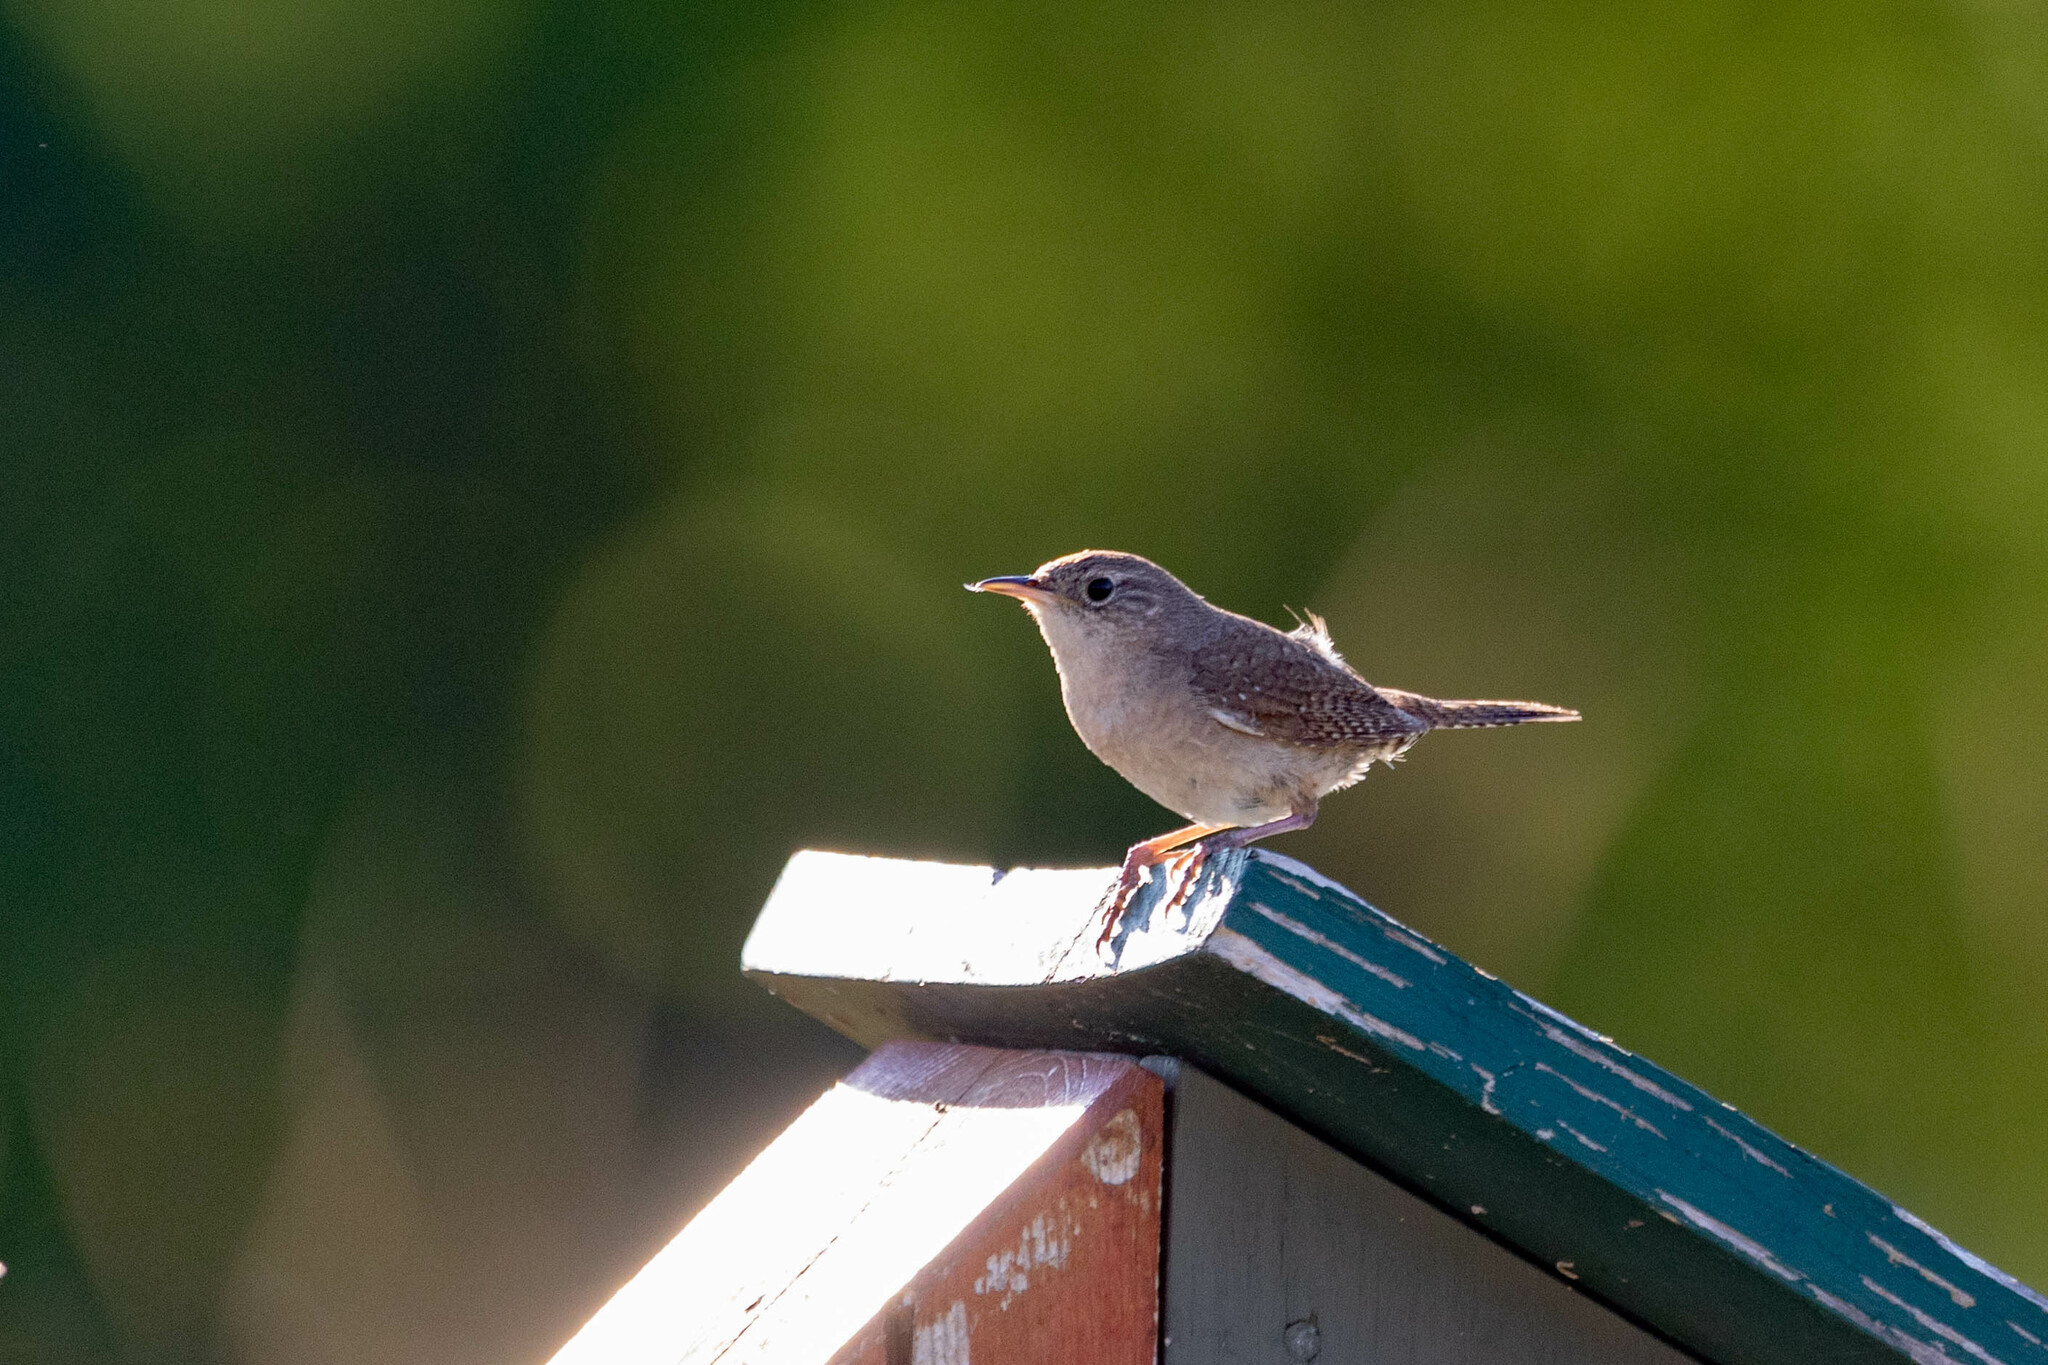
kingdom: Animalia
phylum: Chordata
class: Aves
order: Passeriformes
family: Troglodytidae
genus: Troglodytes
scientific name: Troglodytes aedon
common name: House wren
